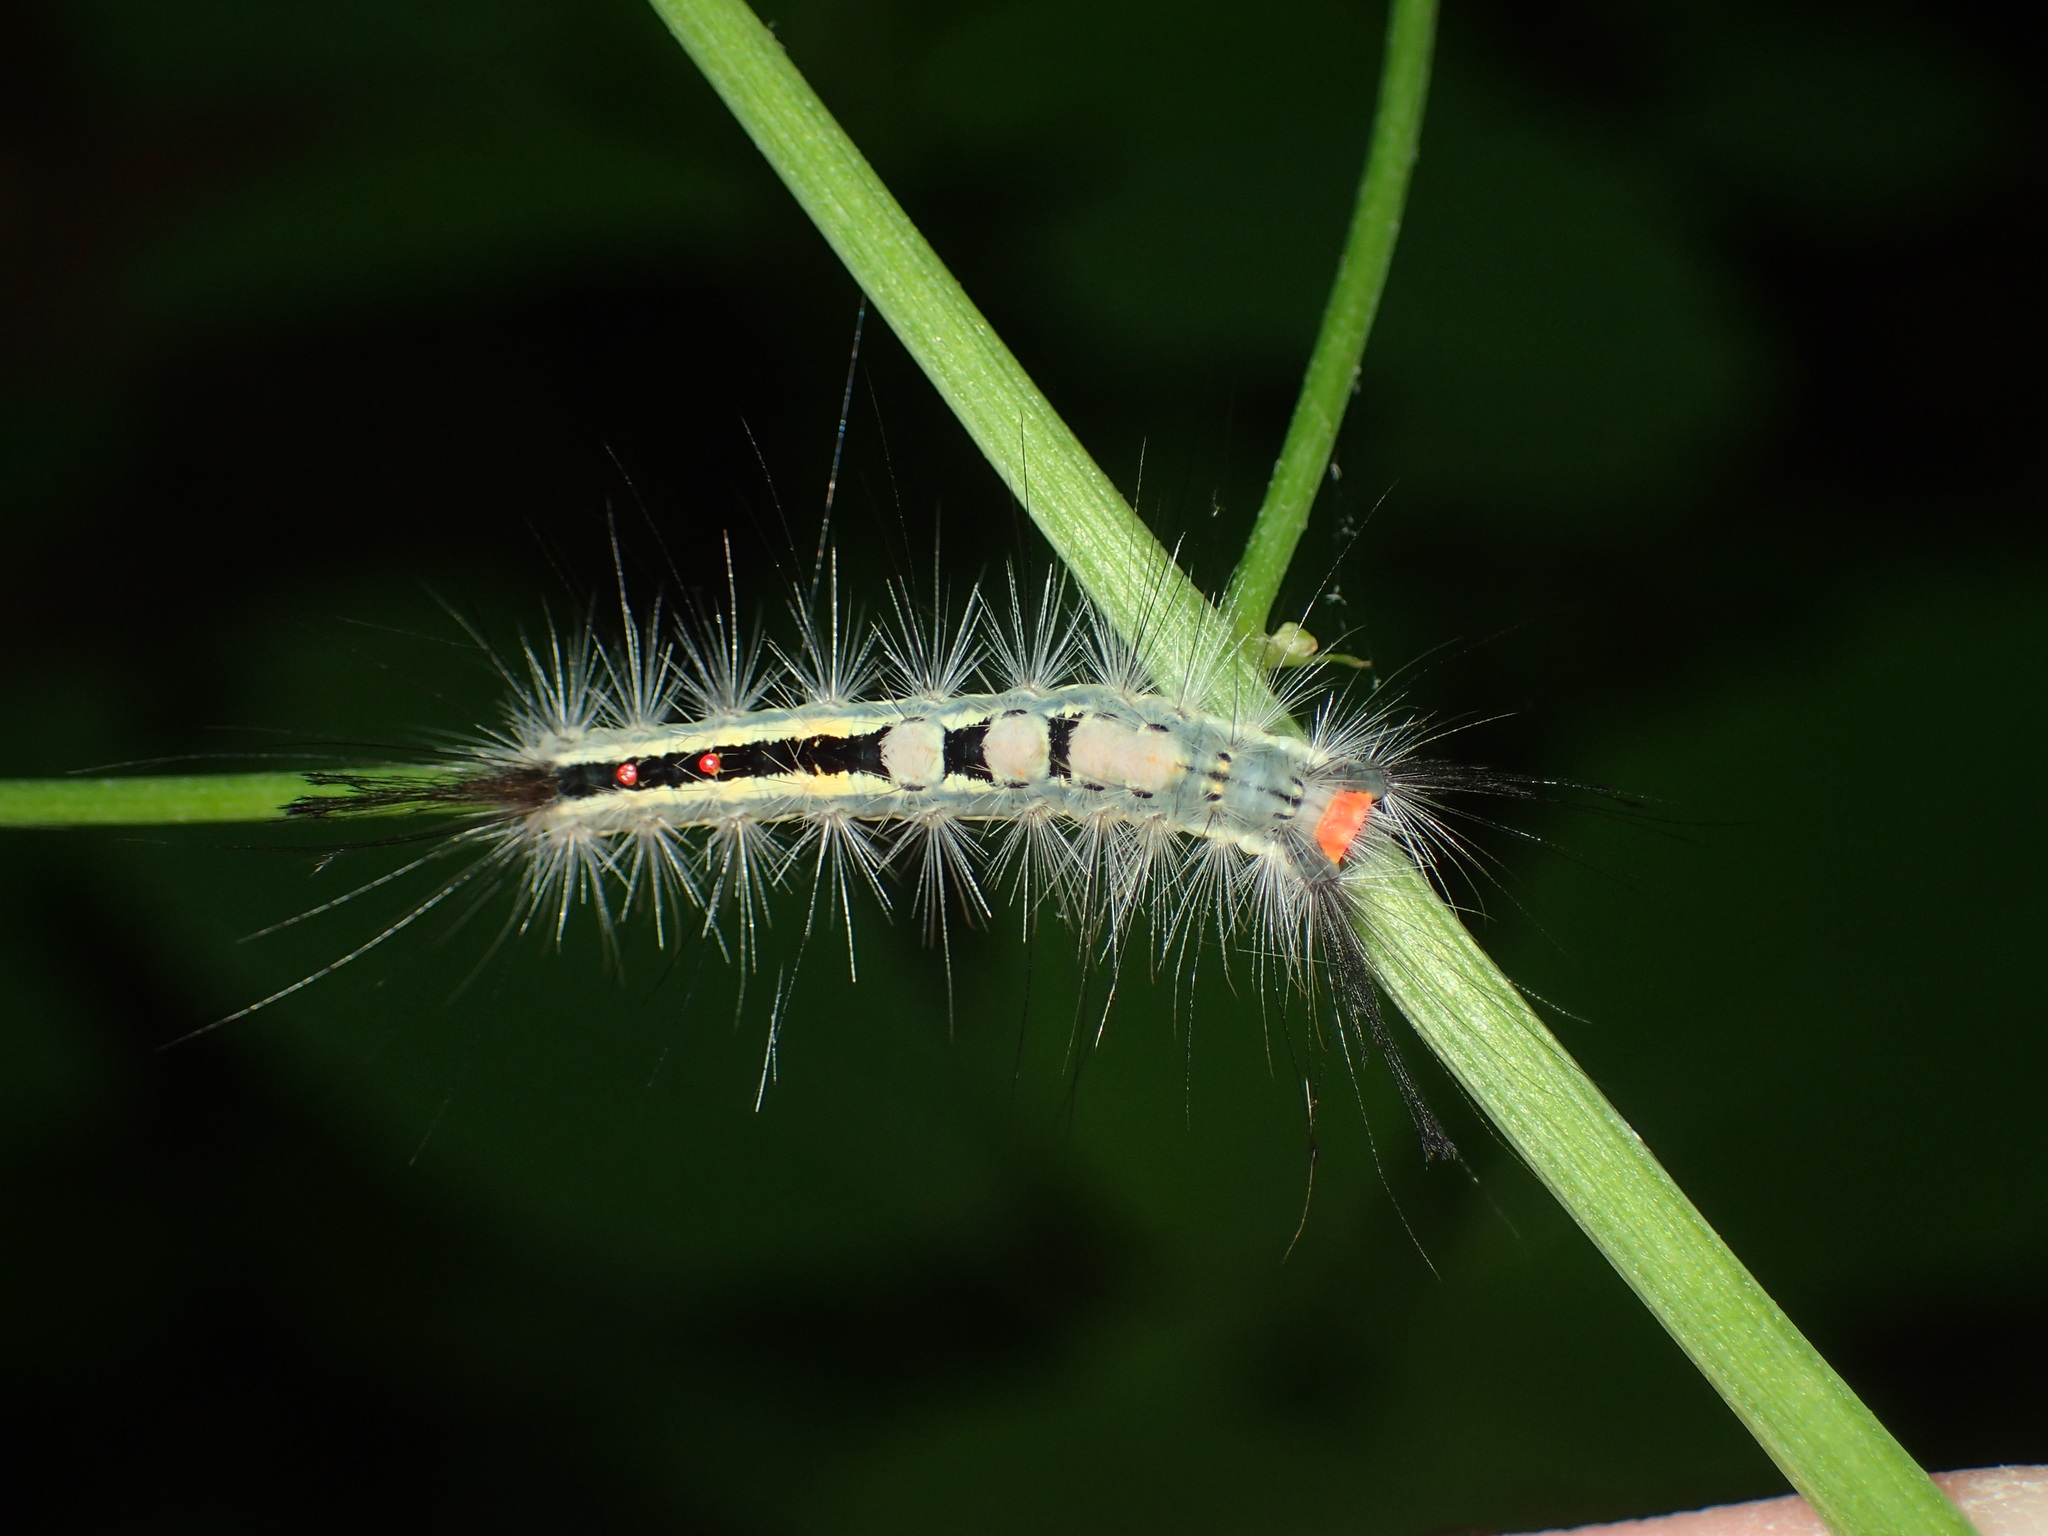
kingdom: Animalia
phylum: Arthropoda
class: Insecta
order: Lepidoptera
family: Erebidae
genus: Orgyia
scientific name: Orgyia leucostigma
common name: White-marked tussock moth
